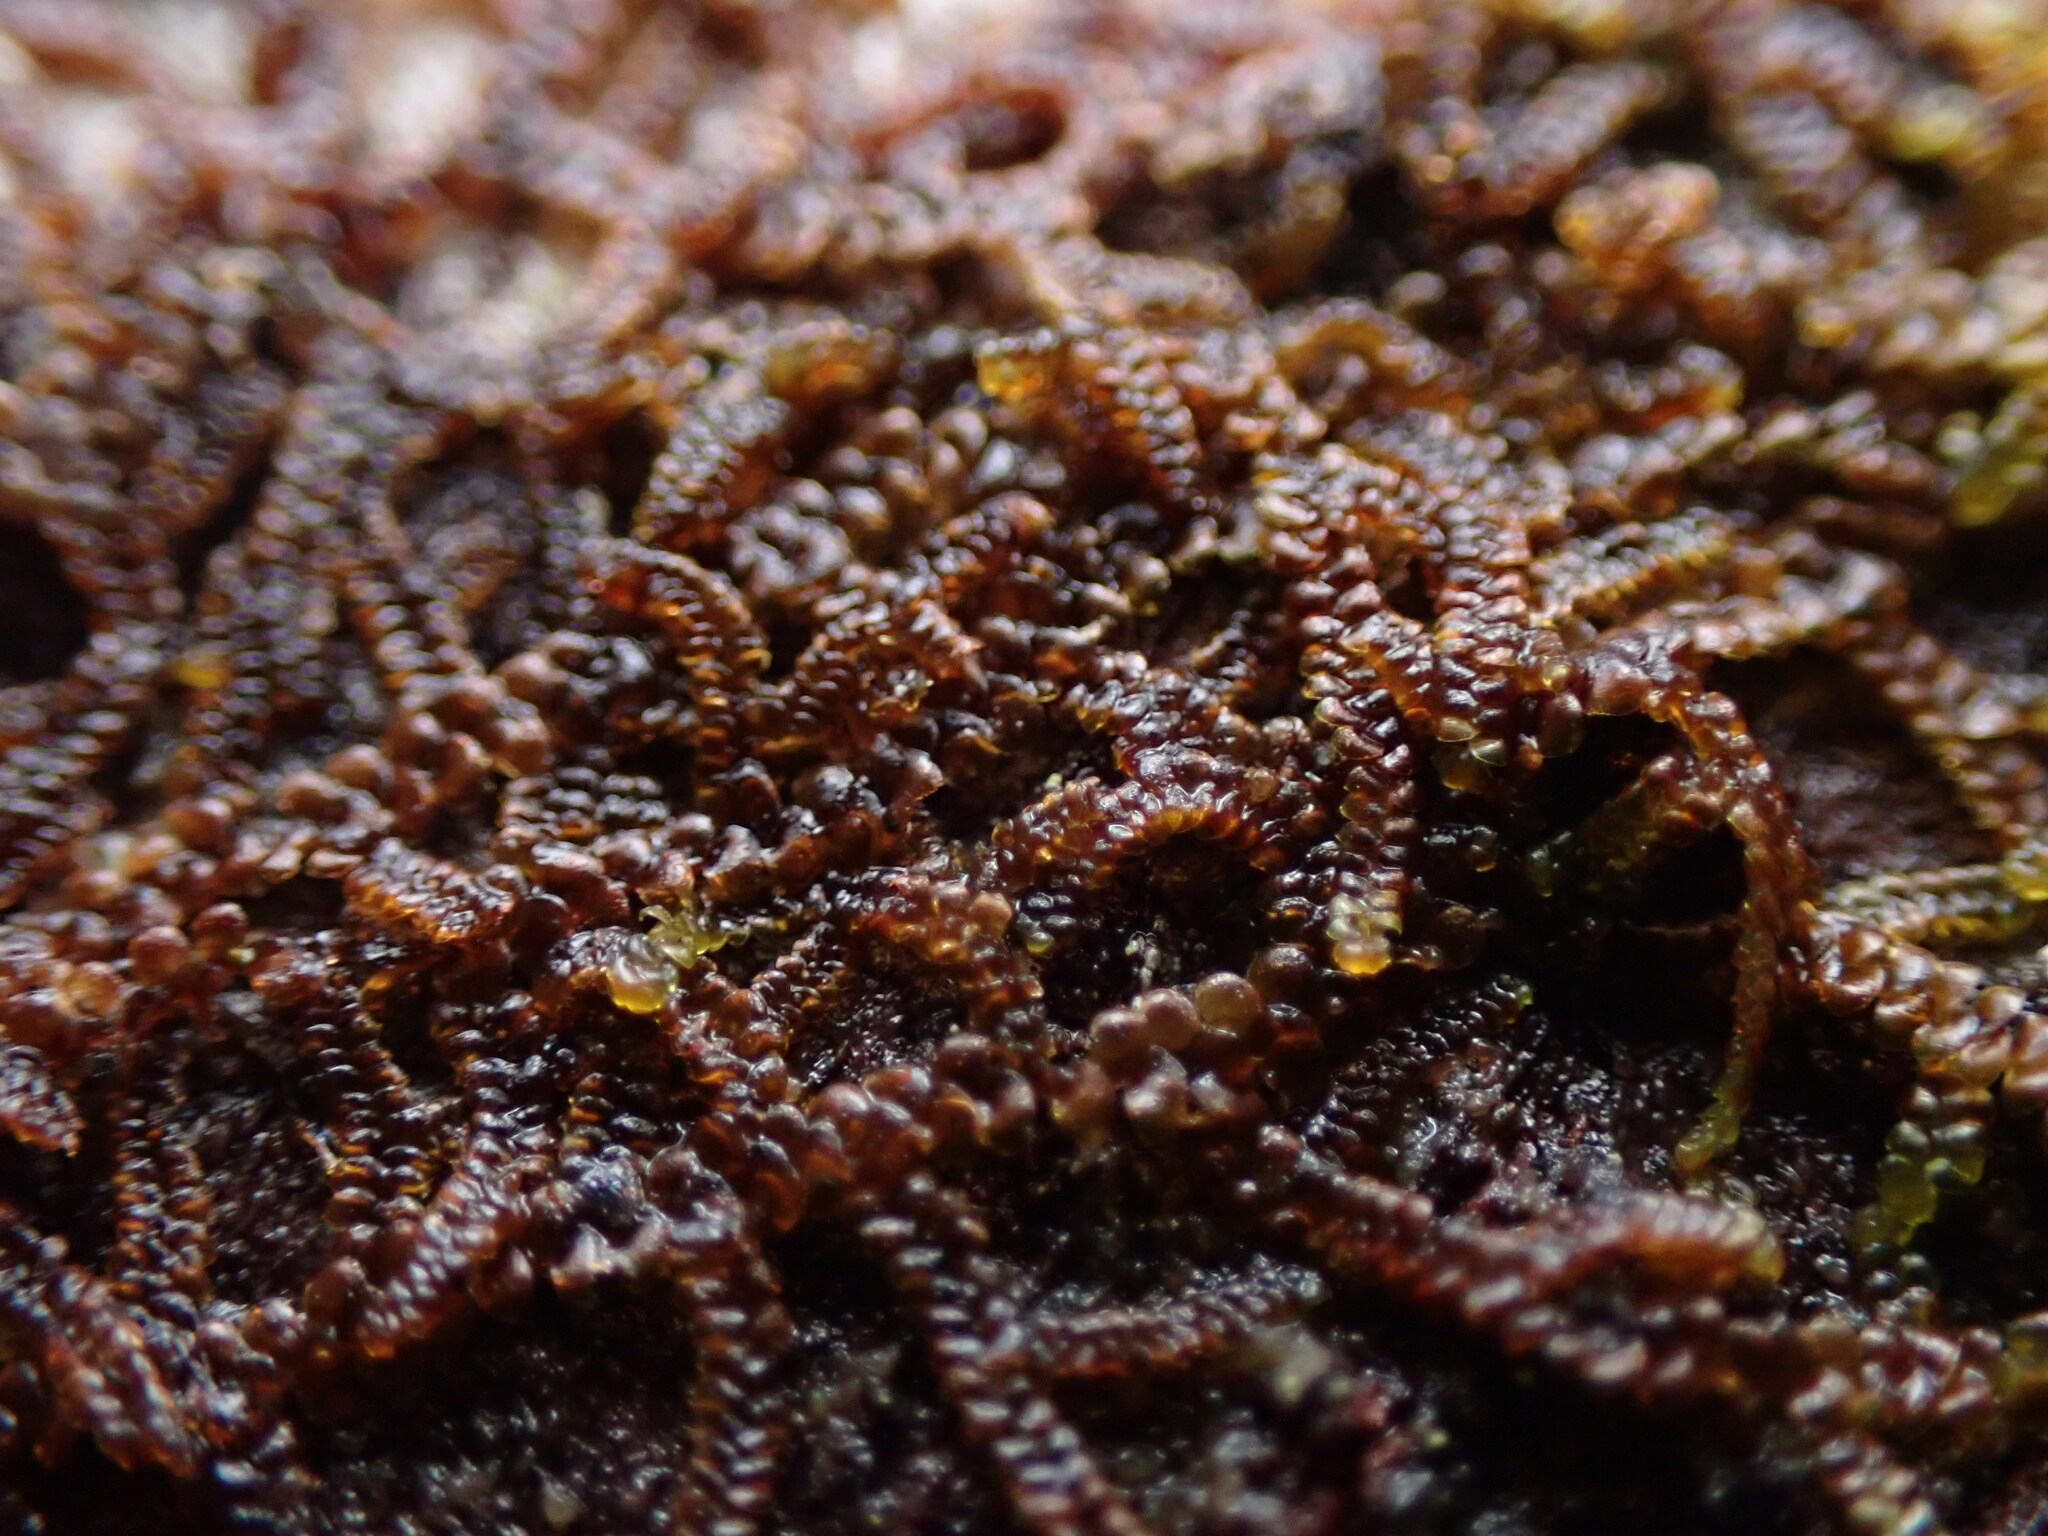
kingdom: Plantae
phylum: Marchantiophyta
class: Jungermanniopsida
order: Porellales
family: Frullaniaceae
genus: Frullania
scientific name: Frullania nisquallensis
